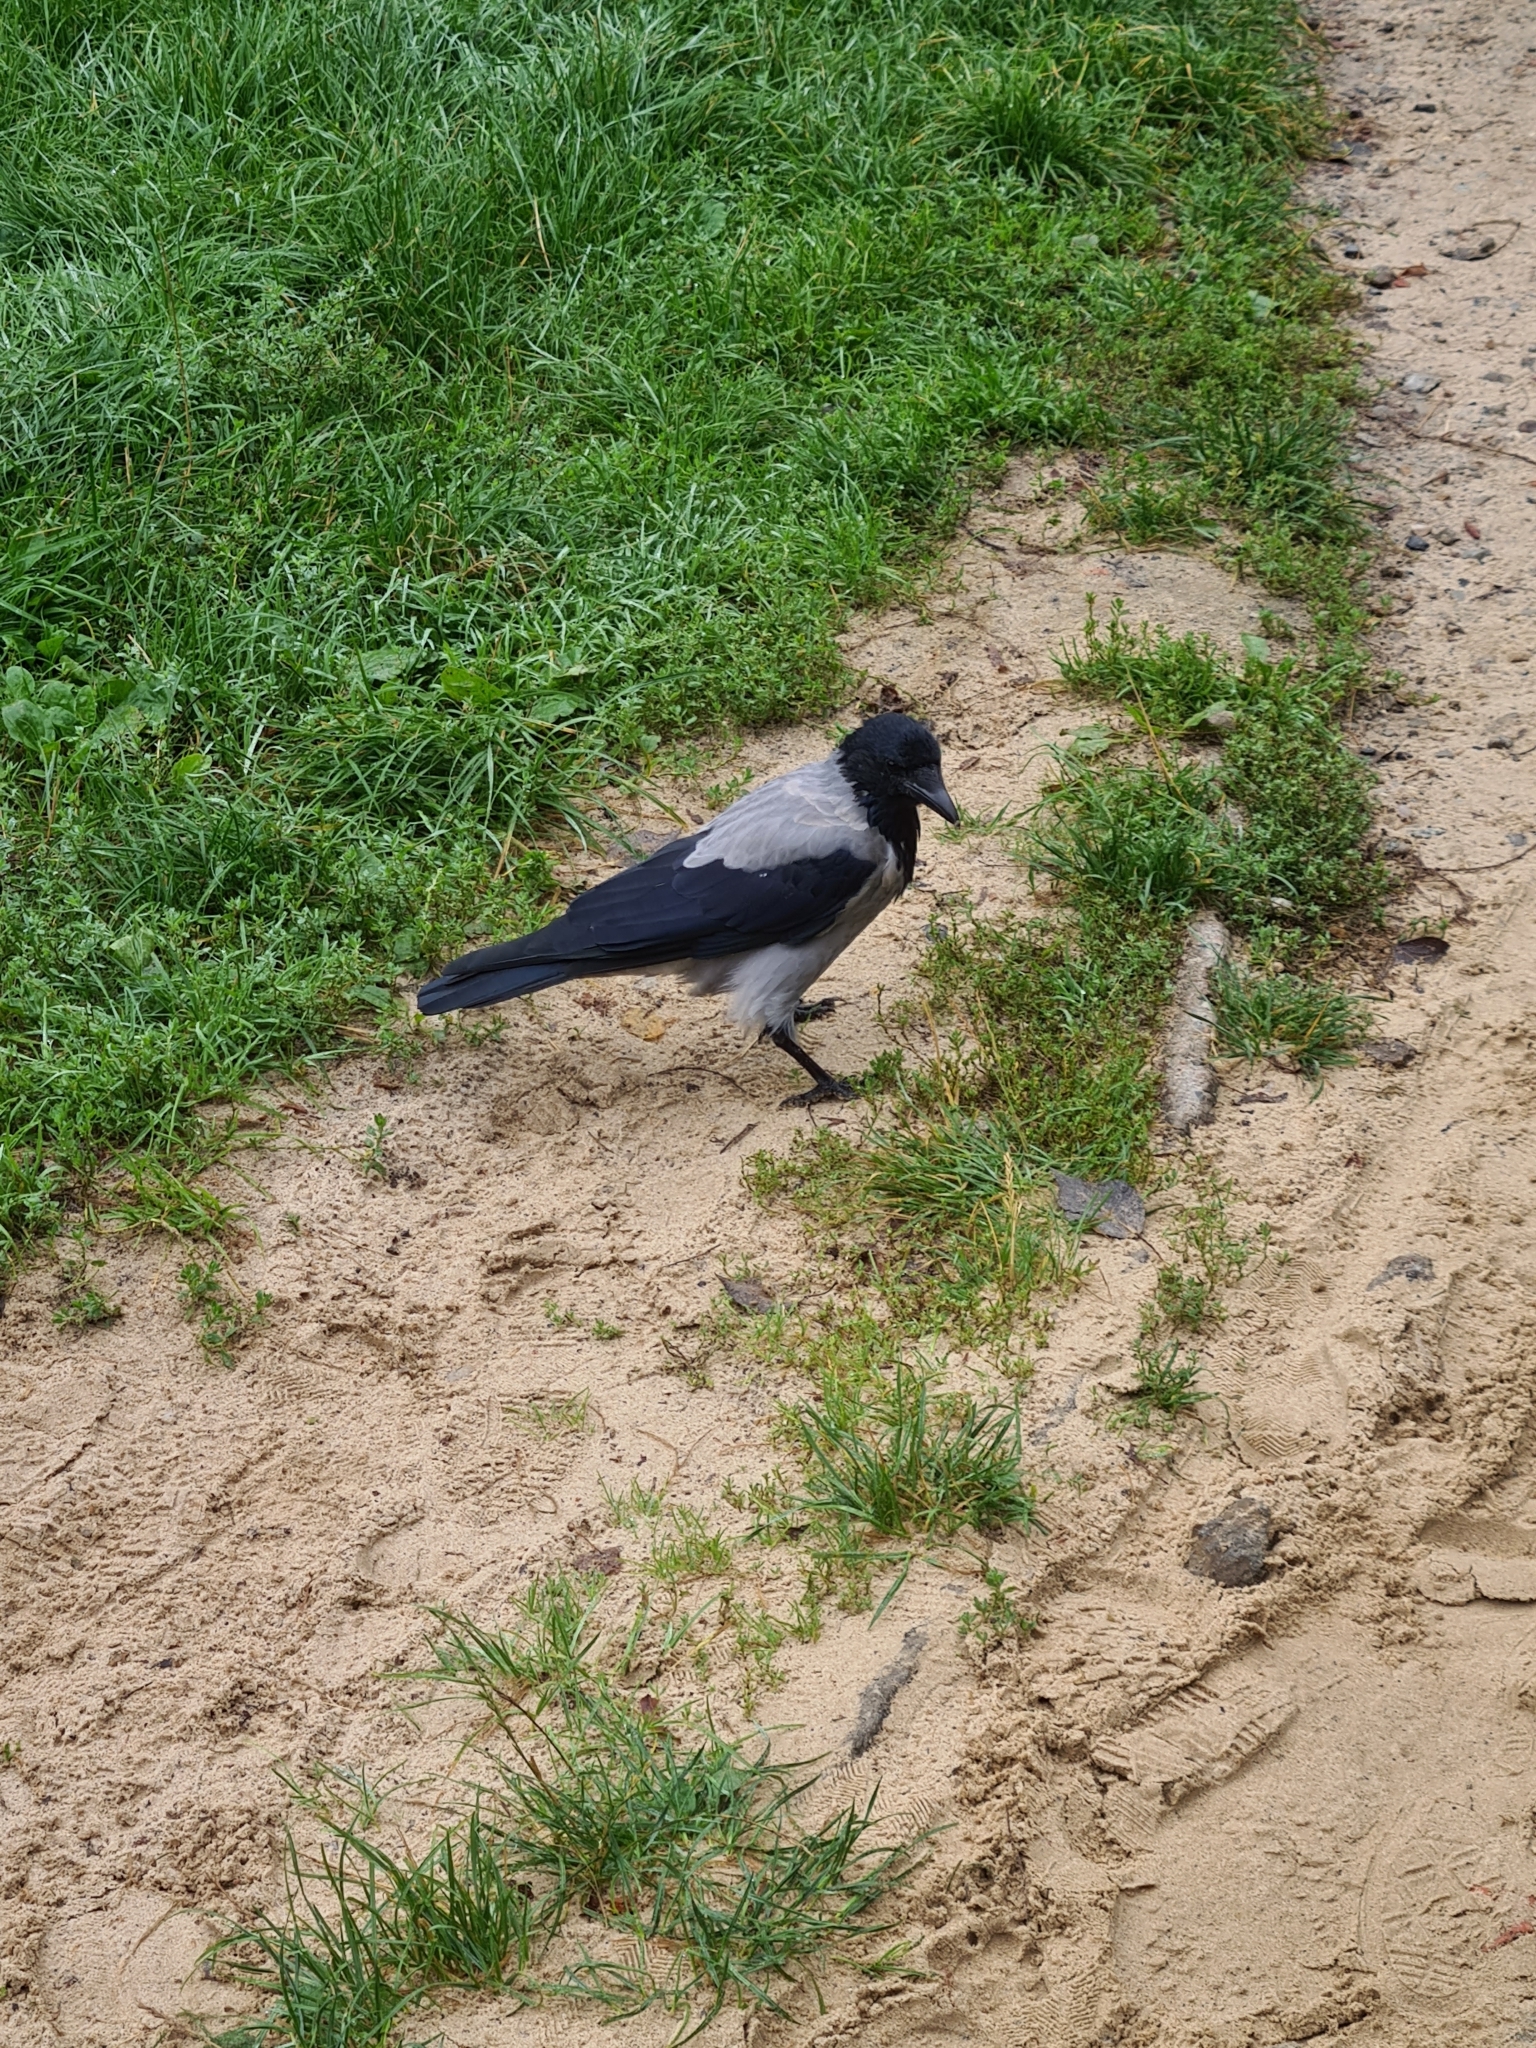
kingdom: Animalia
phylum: Chordata
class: Aves
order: Passeriformes
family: Corvidae
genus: Corvus
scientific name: Corvus cornix
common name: Hooded crow
